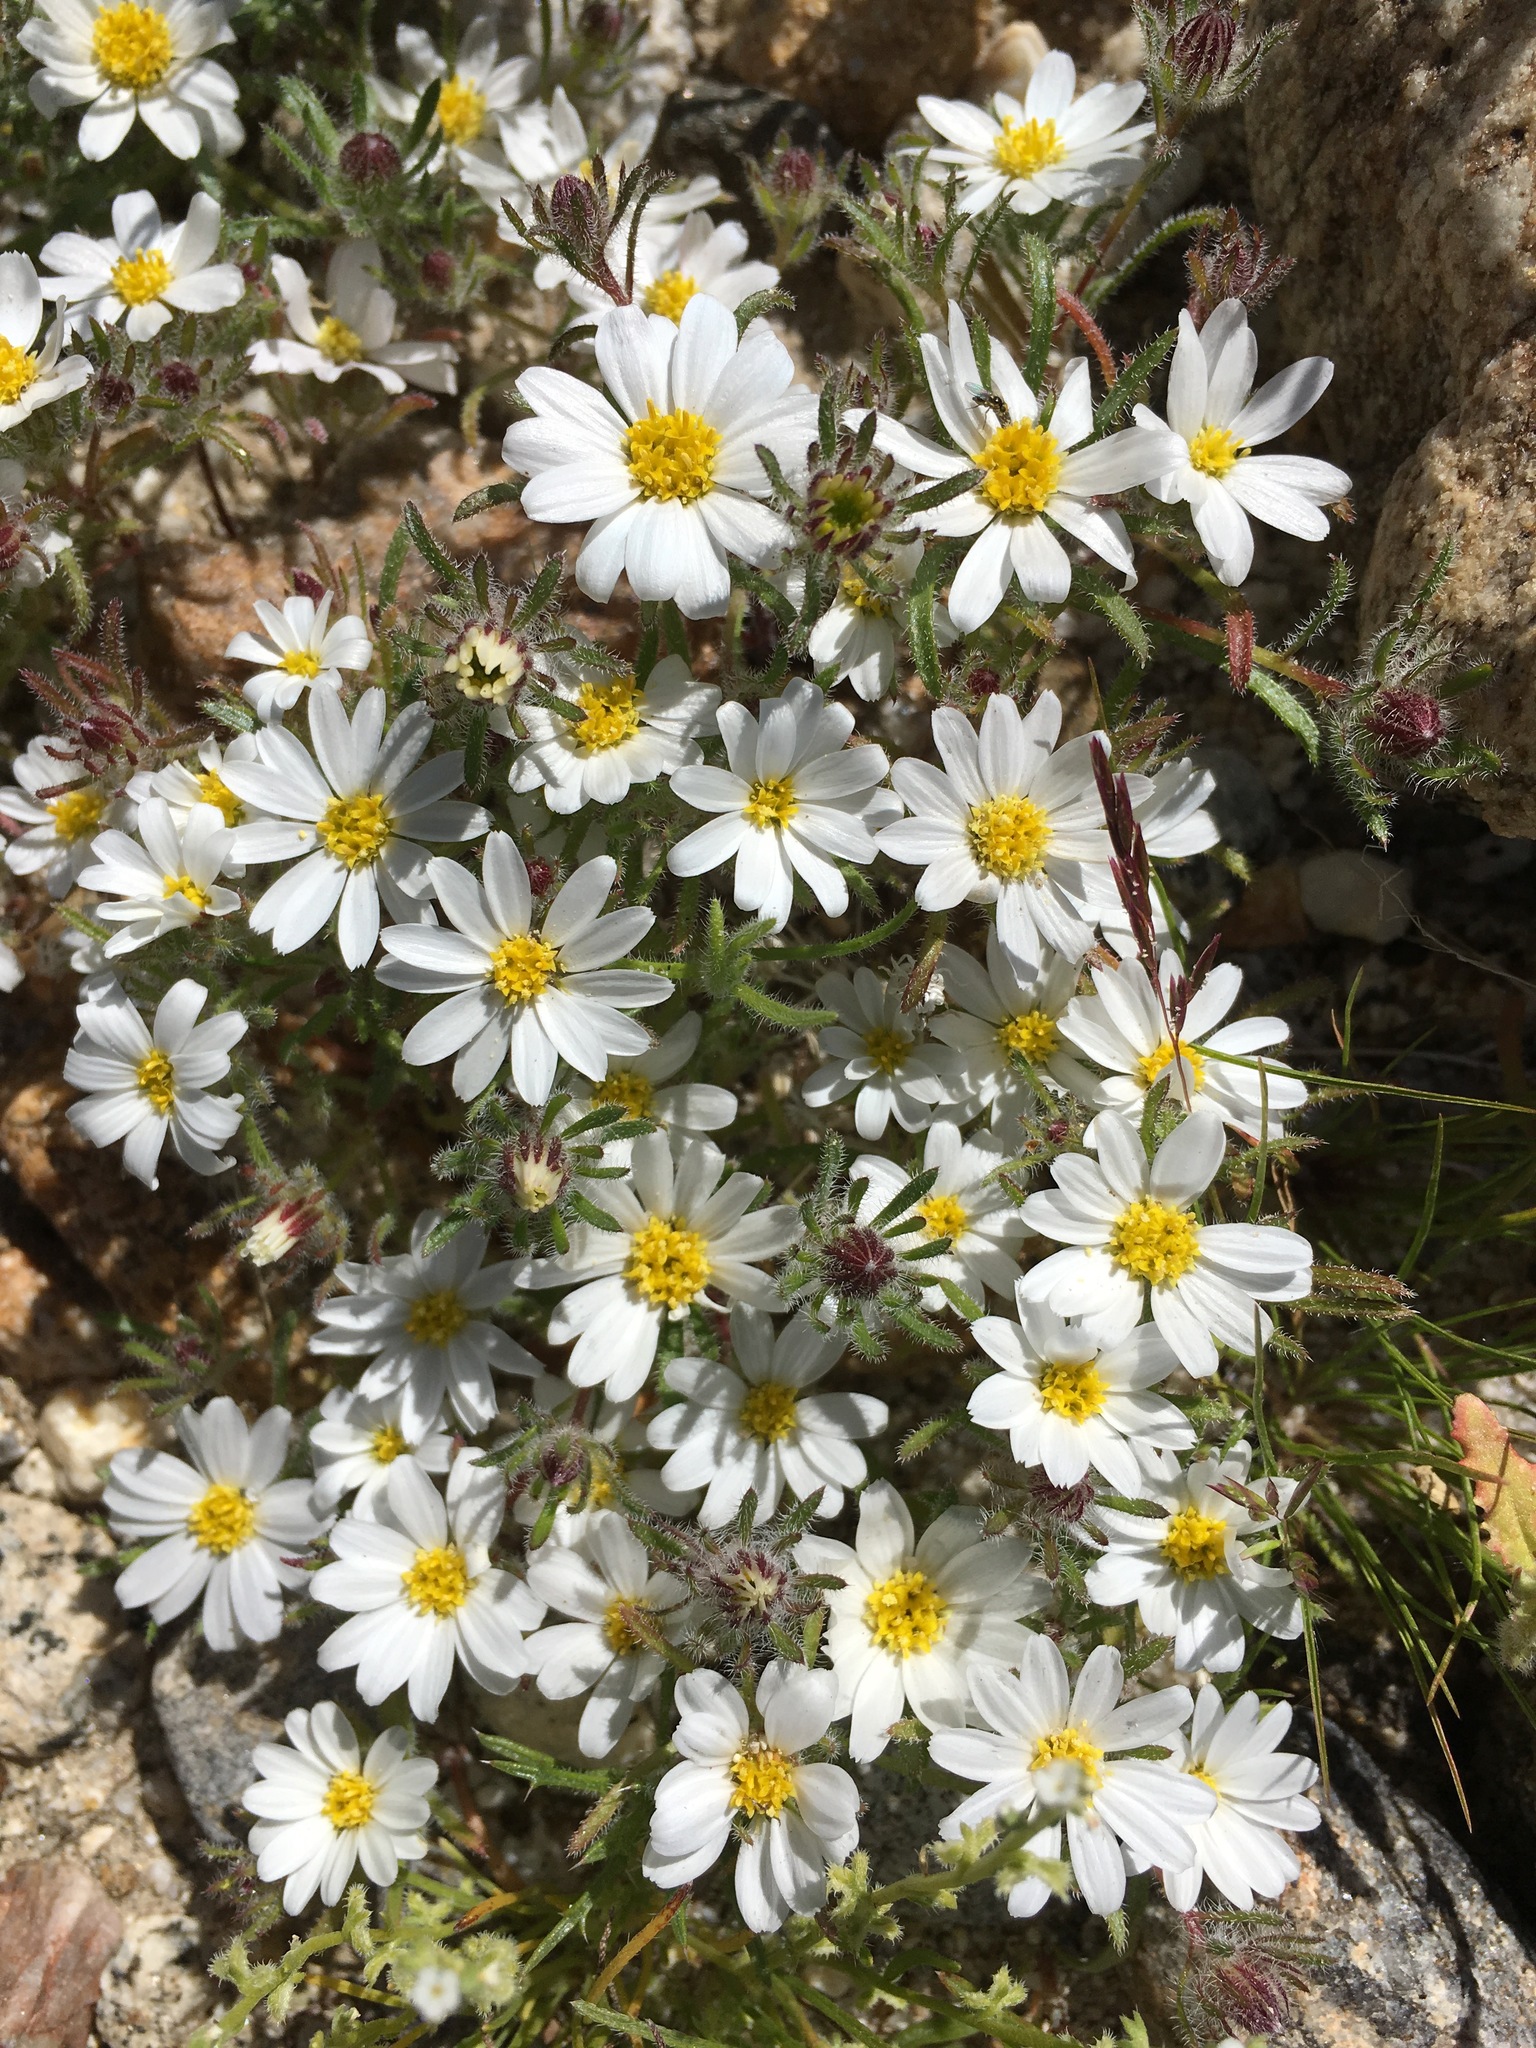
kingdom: Plantae
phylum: Tracheophyta
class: Magnoliopsida
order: Asterales
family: Asteraceae
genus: Monoptilon
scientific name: Monoptilon bellioides
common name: Bristly desertstar
